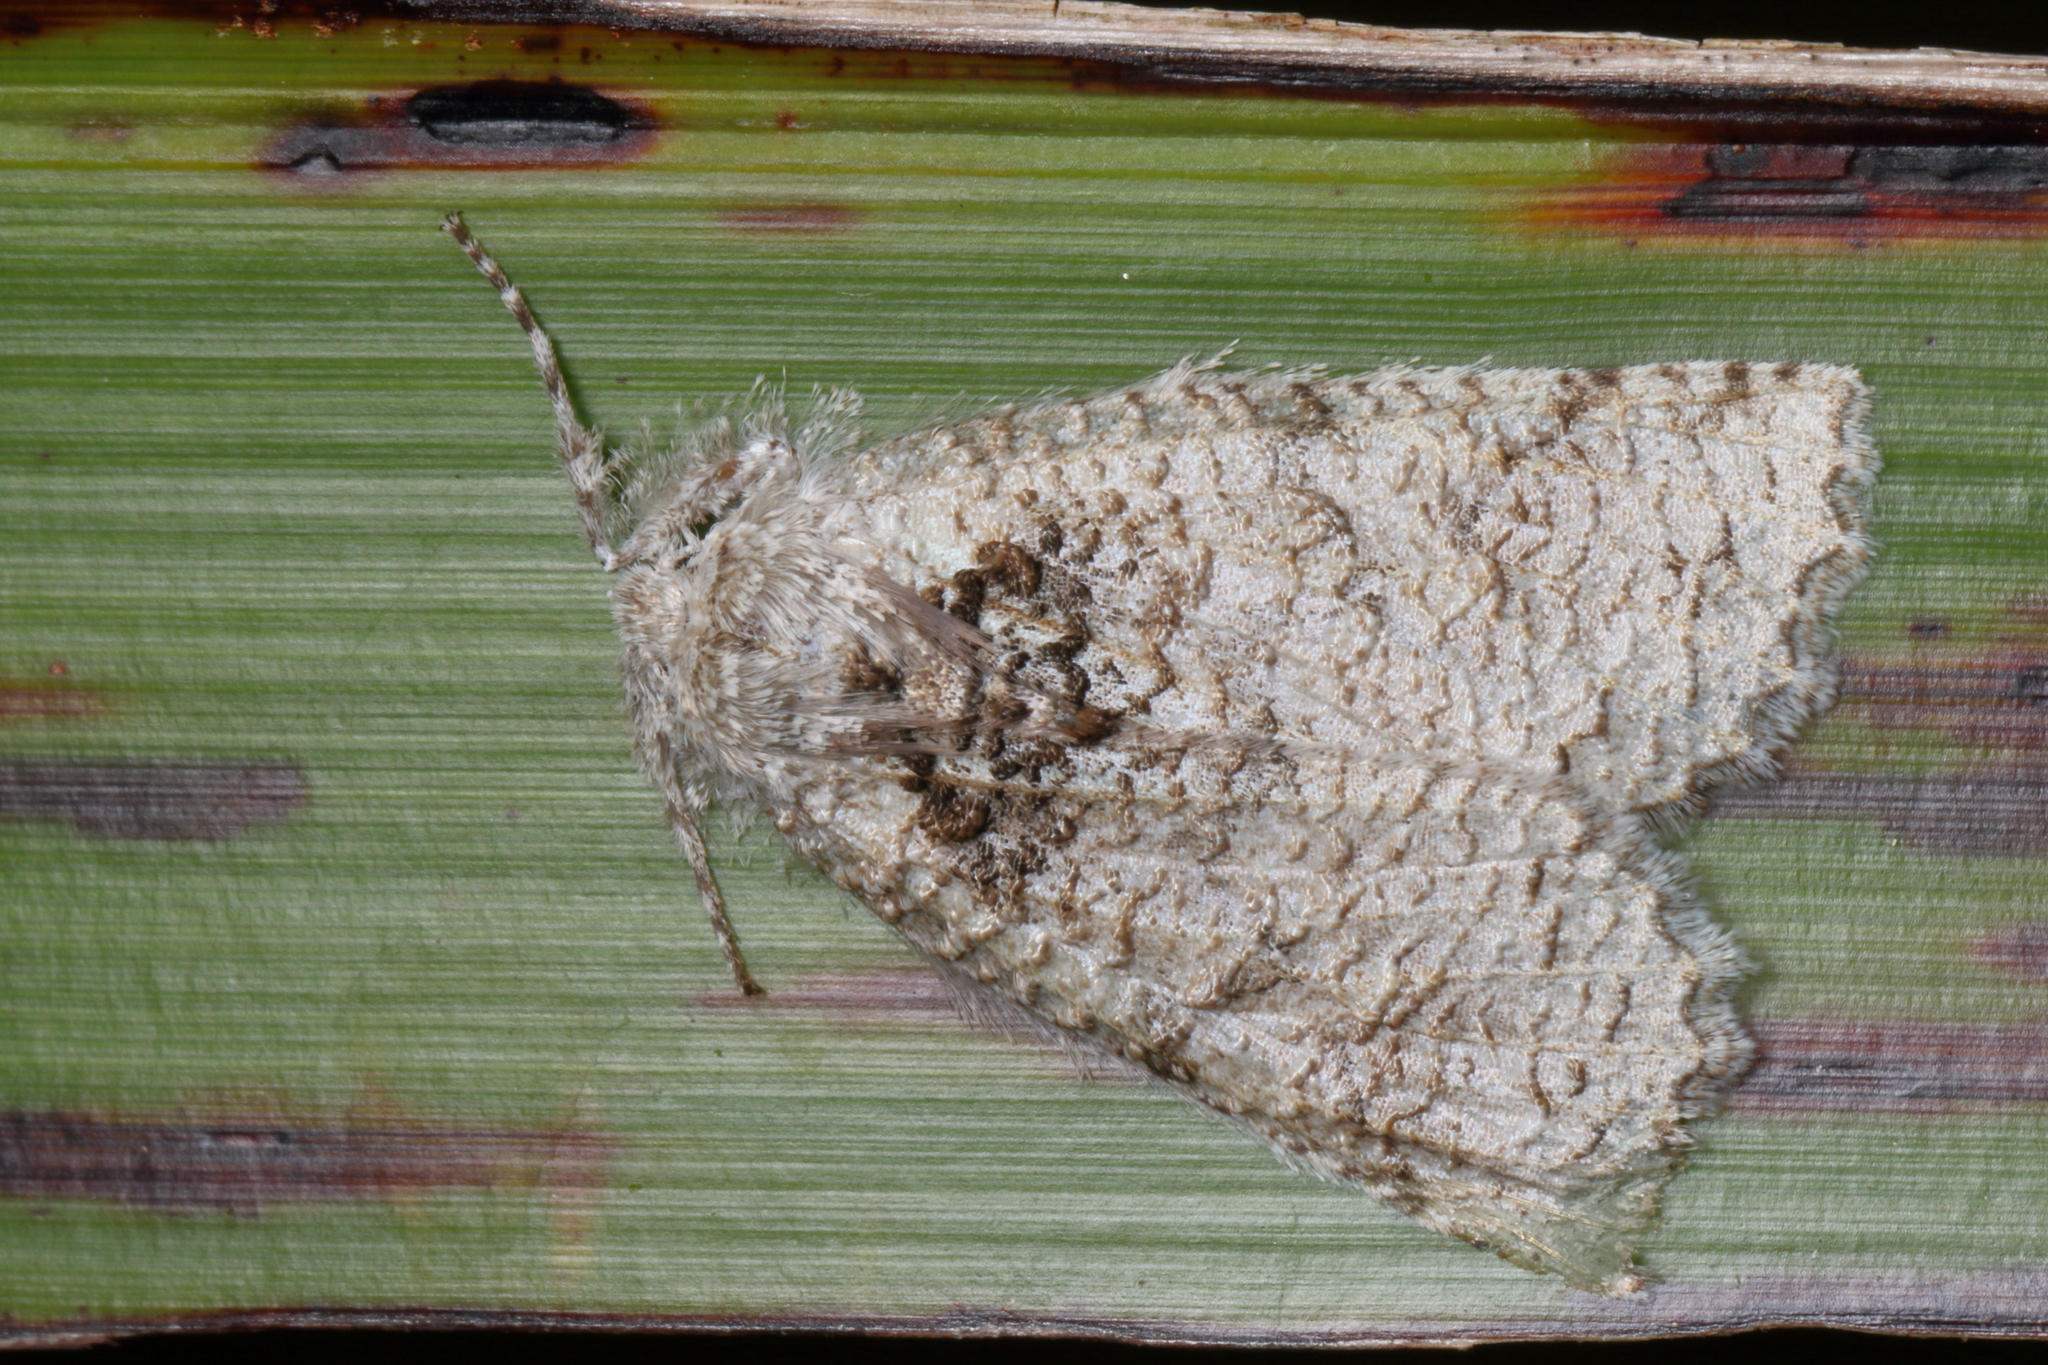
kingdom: Animalia
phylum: Arthropoda
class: Insecta
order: Lepidoptera
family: Geometridae
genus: Declana
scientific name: Declana floccosa
